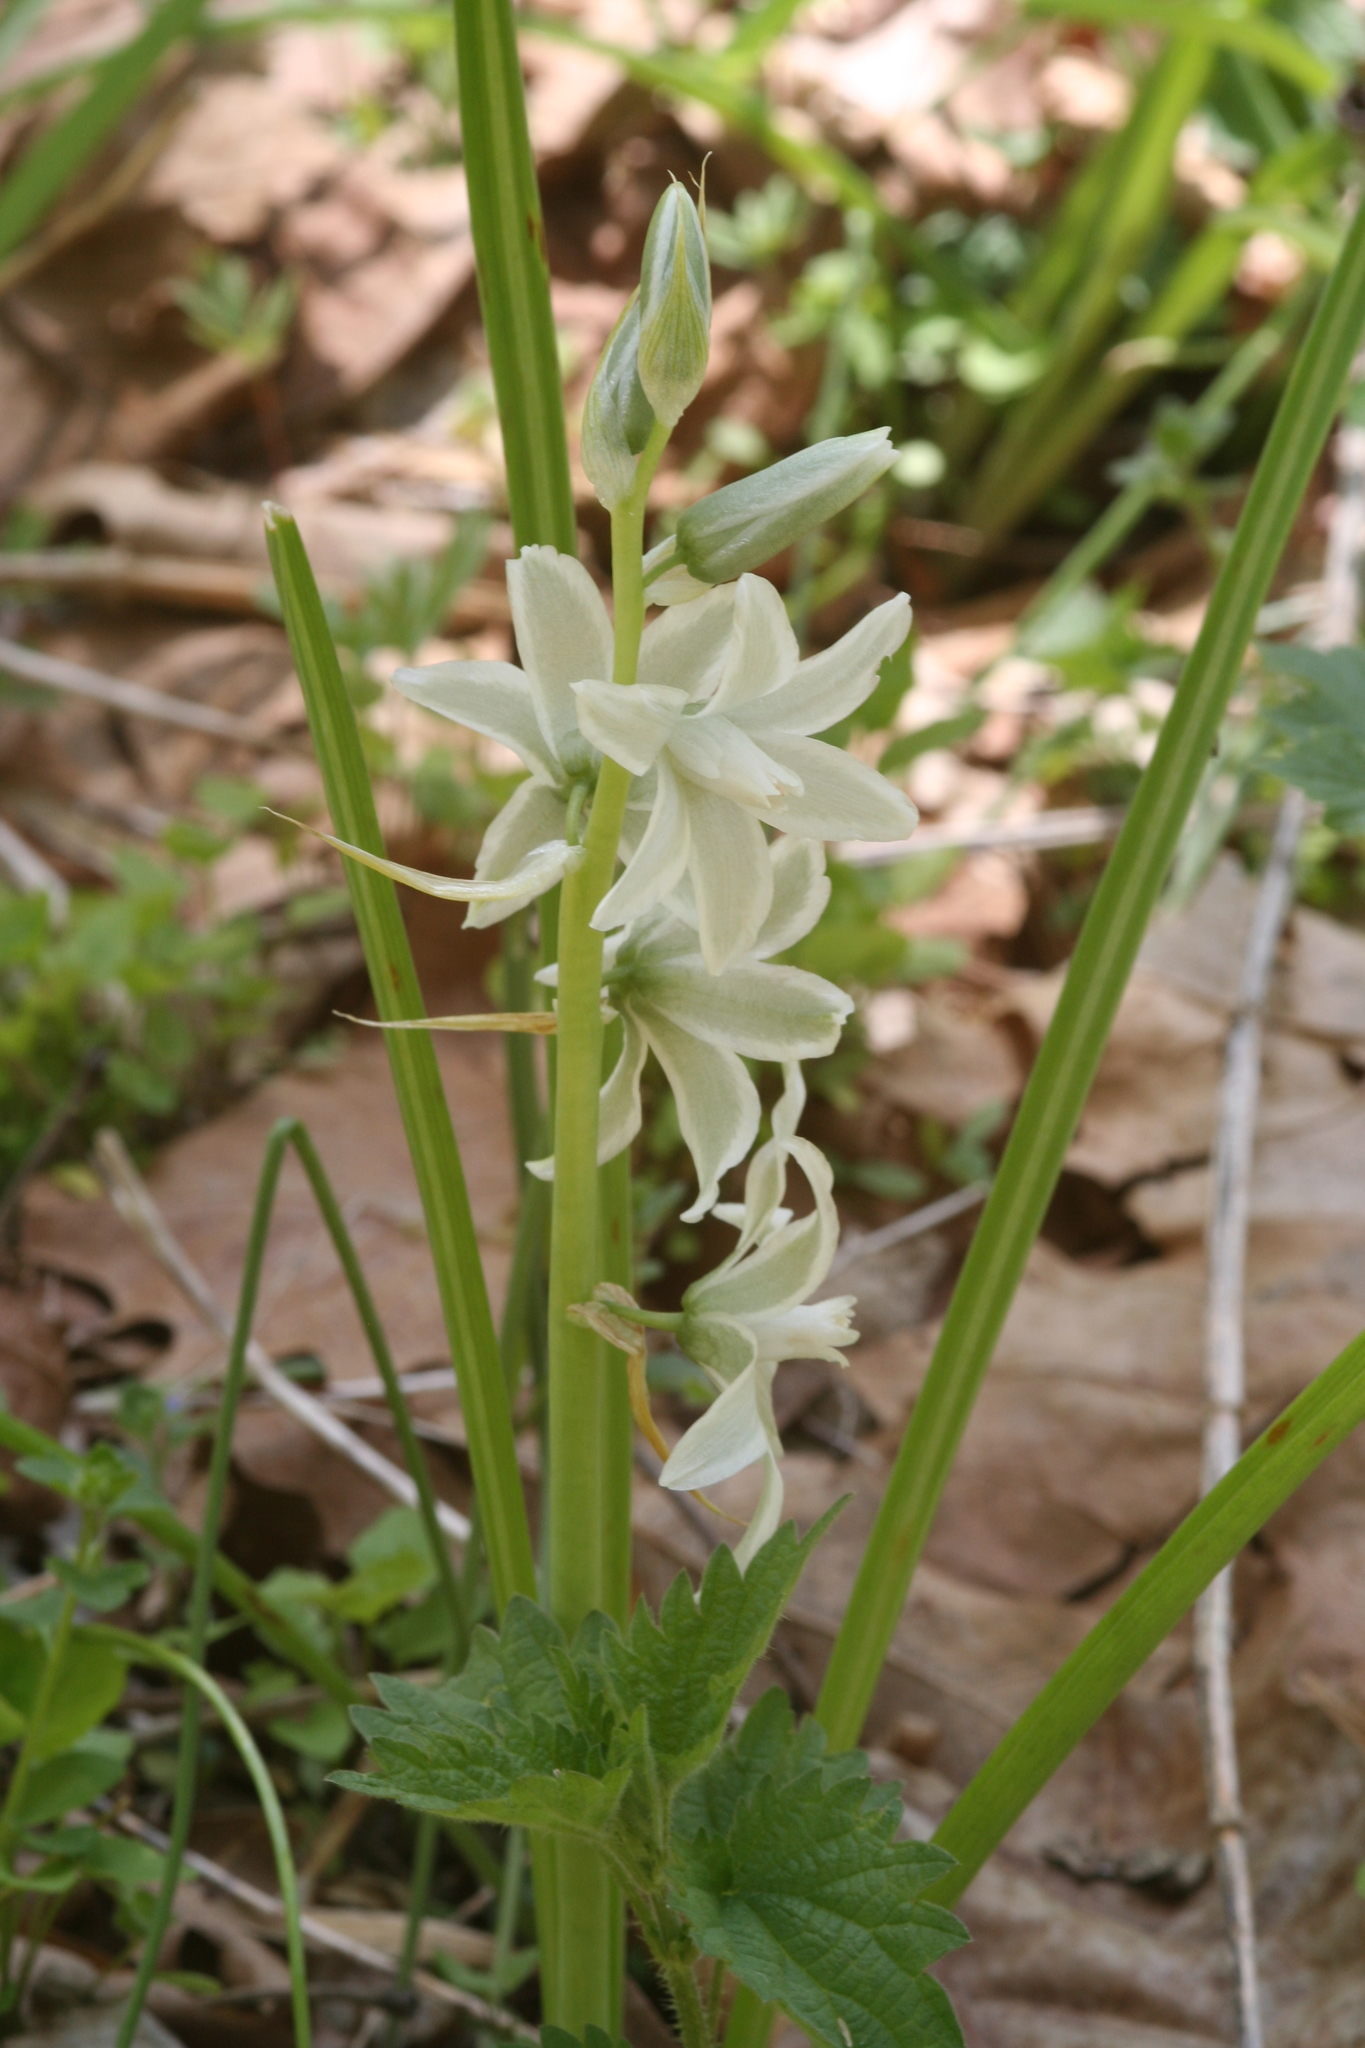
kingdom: Plantae
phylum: Tracheophyta
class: Liliopsida
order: Asparagales
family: Asparagaceae
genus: Ornithogalum
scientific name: Ornithogalum nutans
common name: Drooping star-of-bethlehem
